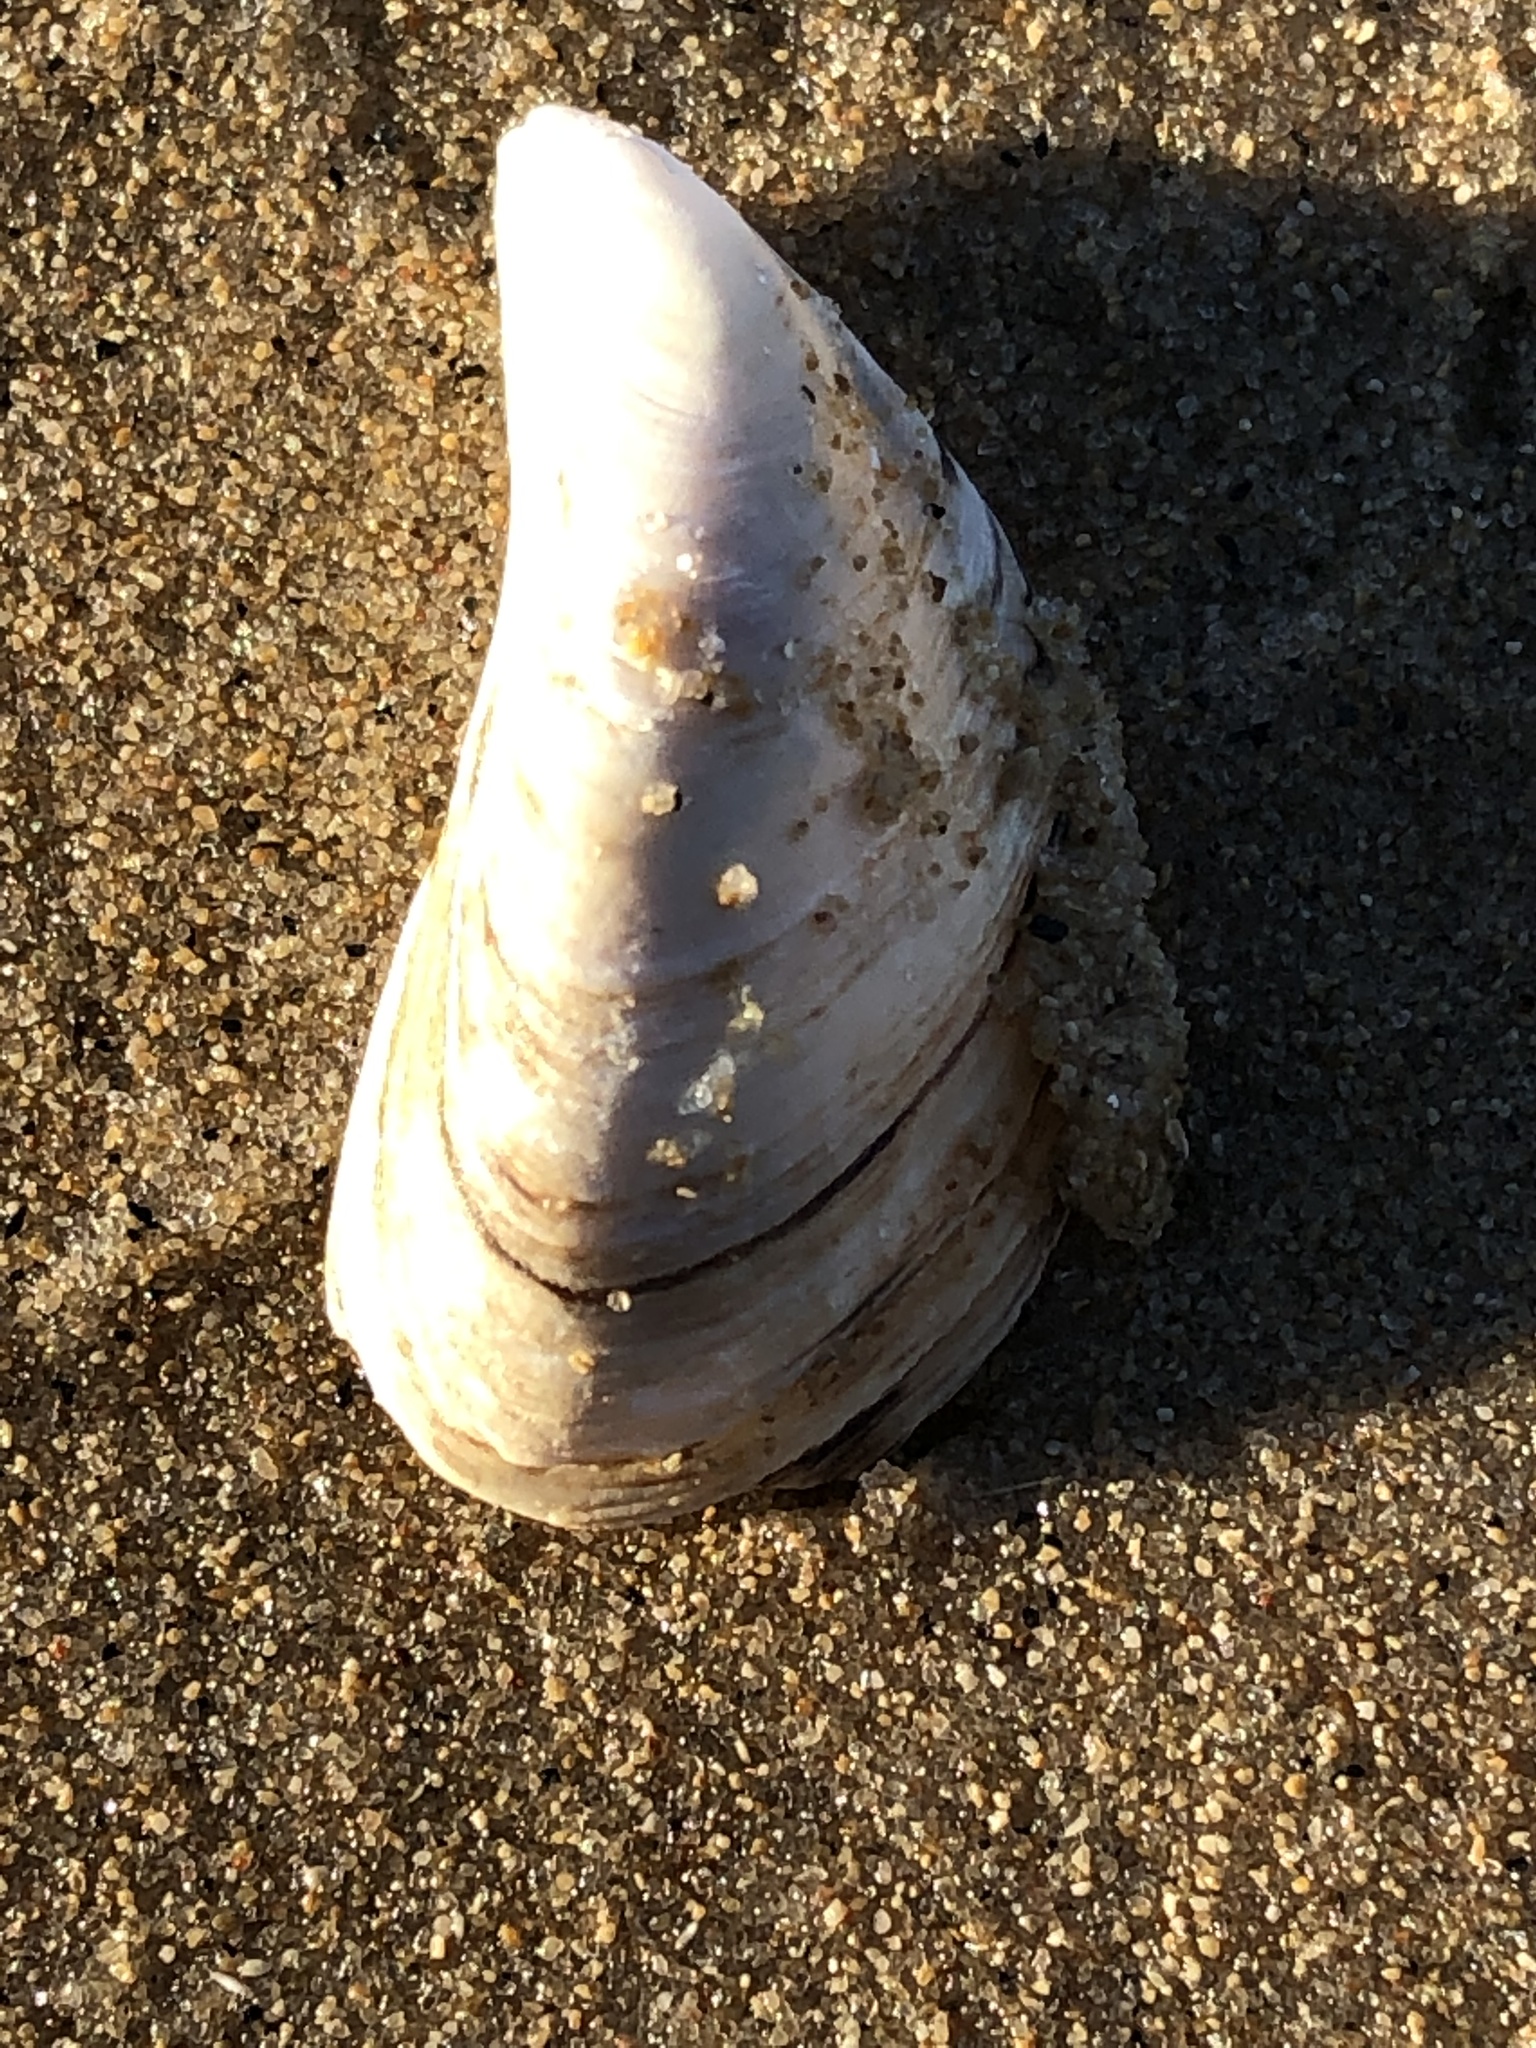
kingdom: Animalia
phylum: Mollusca
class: Bivalvia
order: Myida
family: Dreissenidae
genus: Dreissena
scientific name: Dreissena bugensis
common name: Quagga mussel
